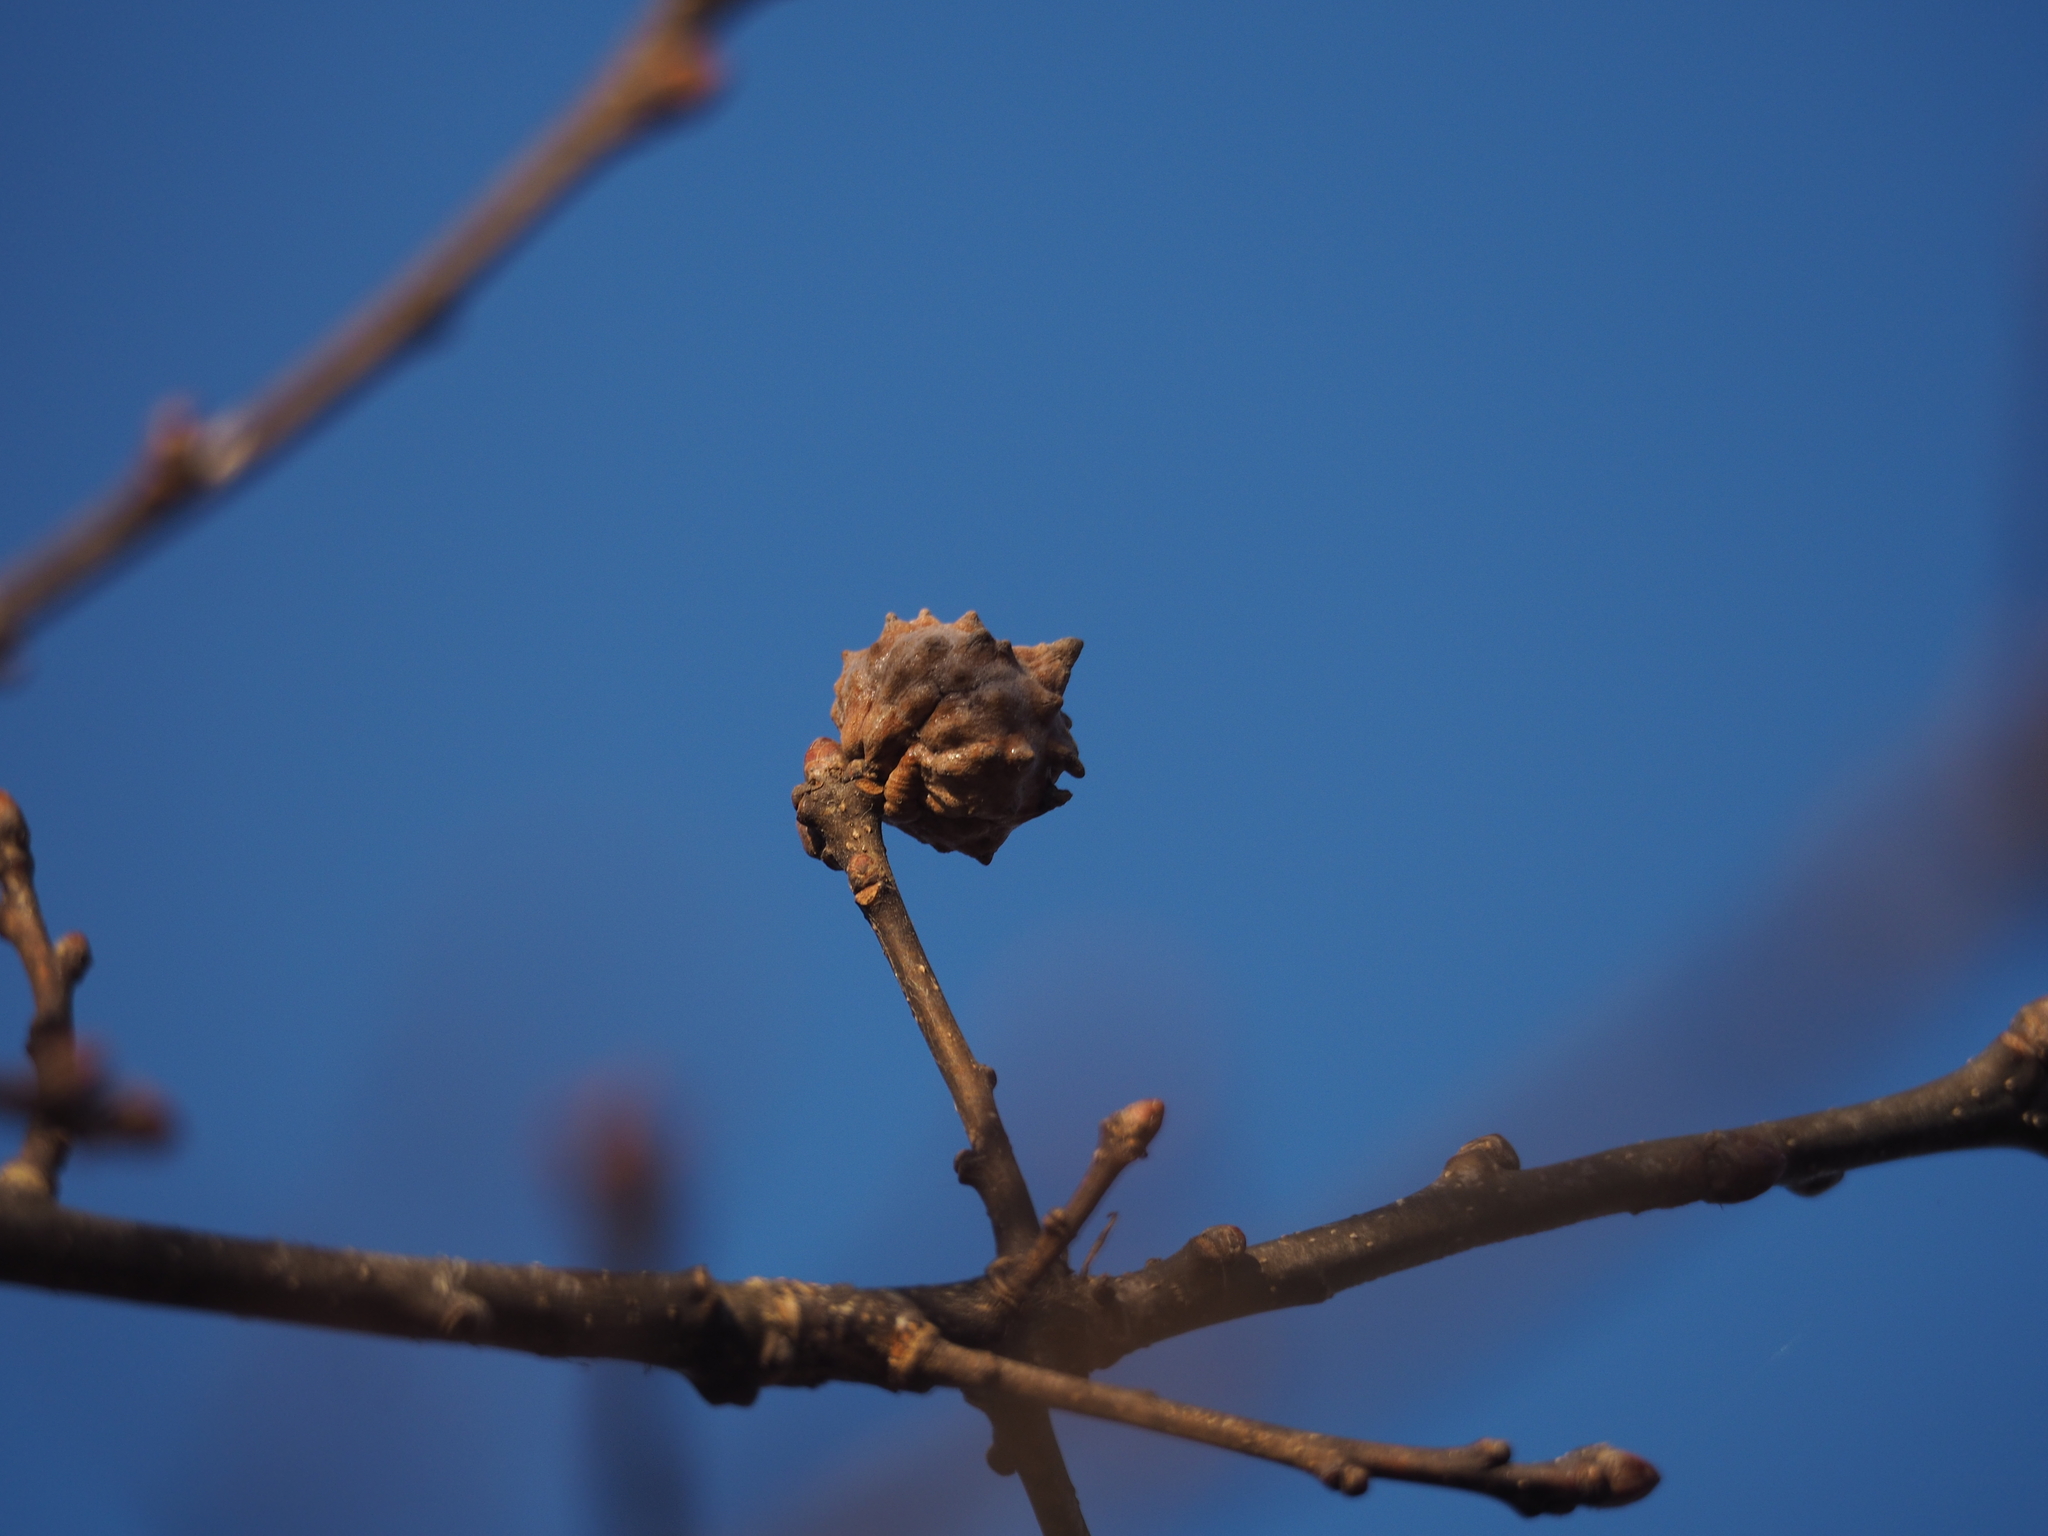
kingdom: Animalia
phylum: Arthropoda
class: Insecta
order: Hymenoptera
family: Cynipidae
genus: Andricus
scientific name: Andricus hungaricus
